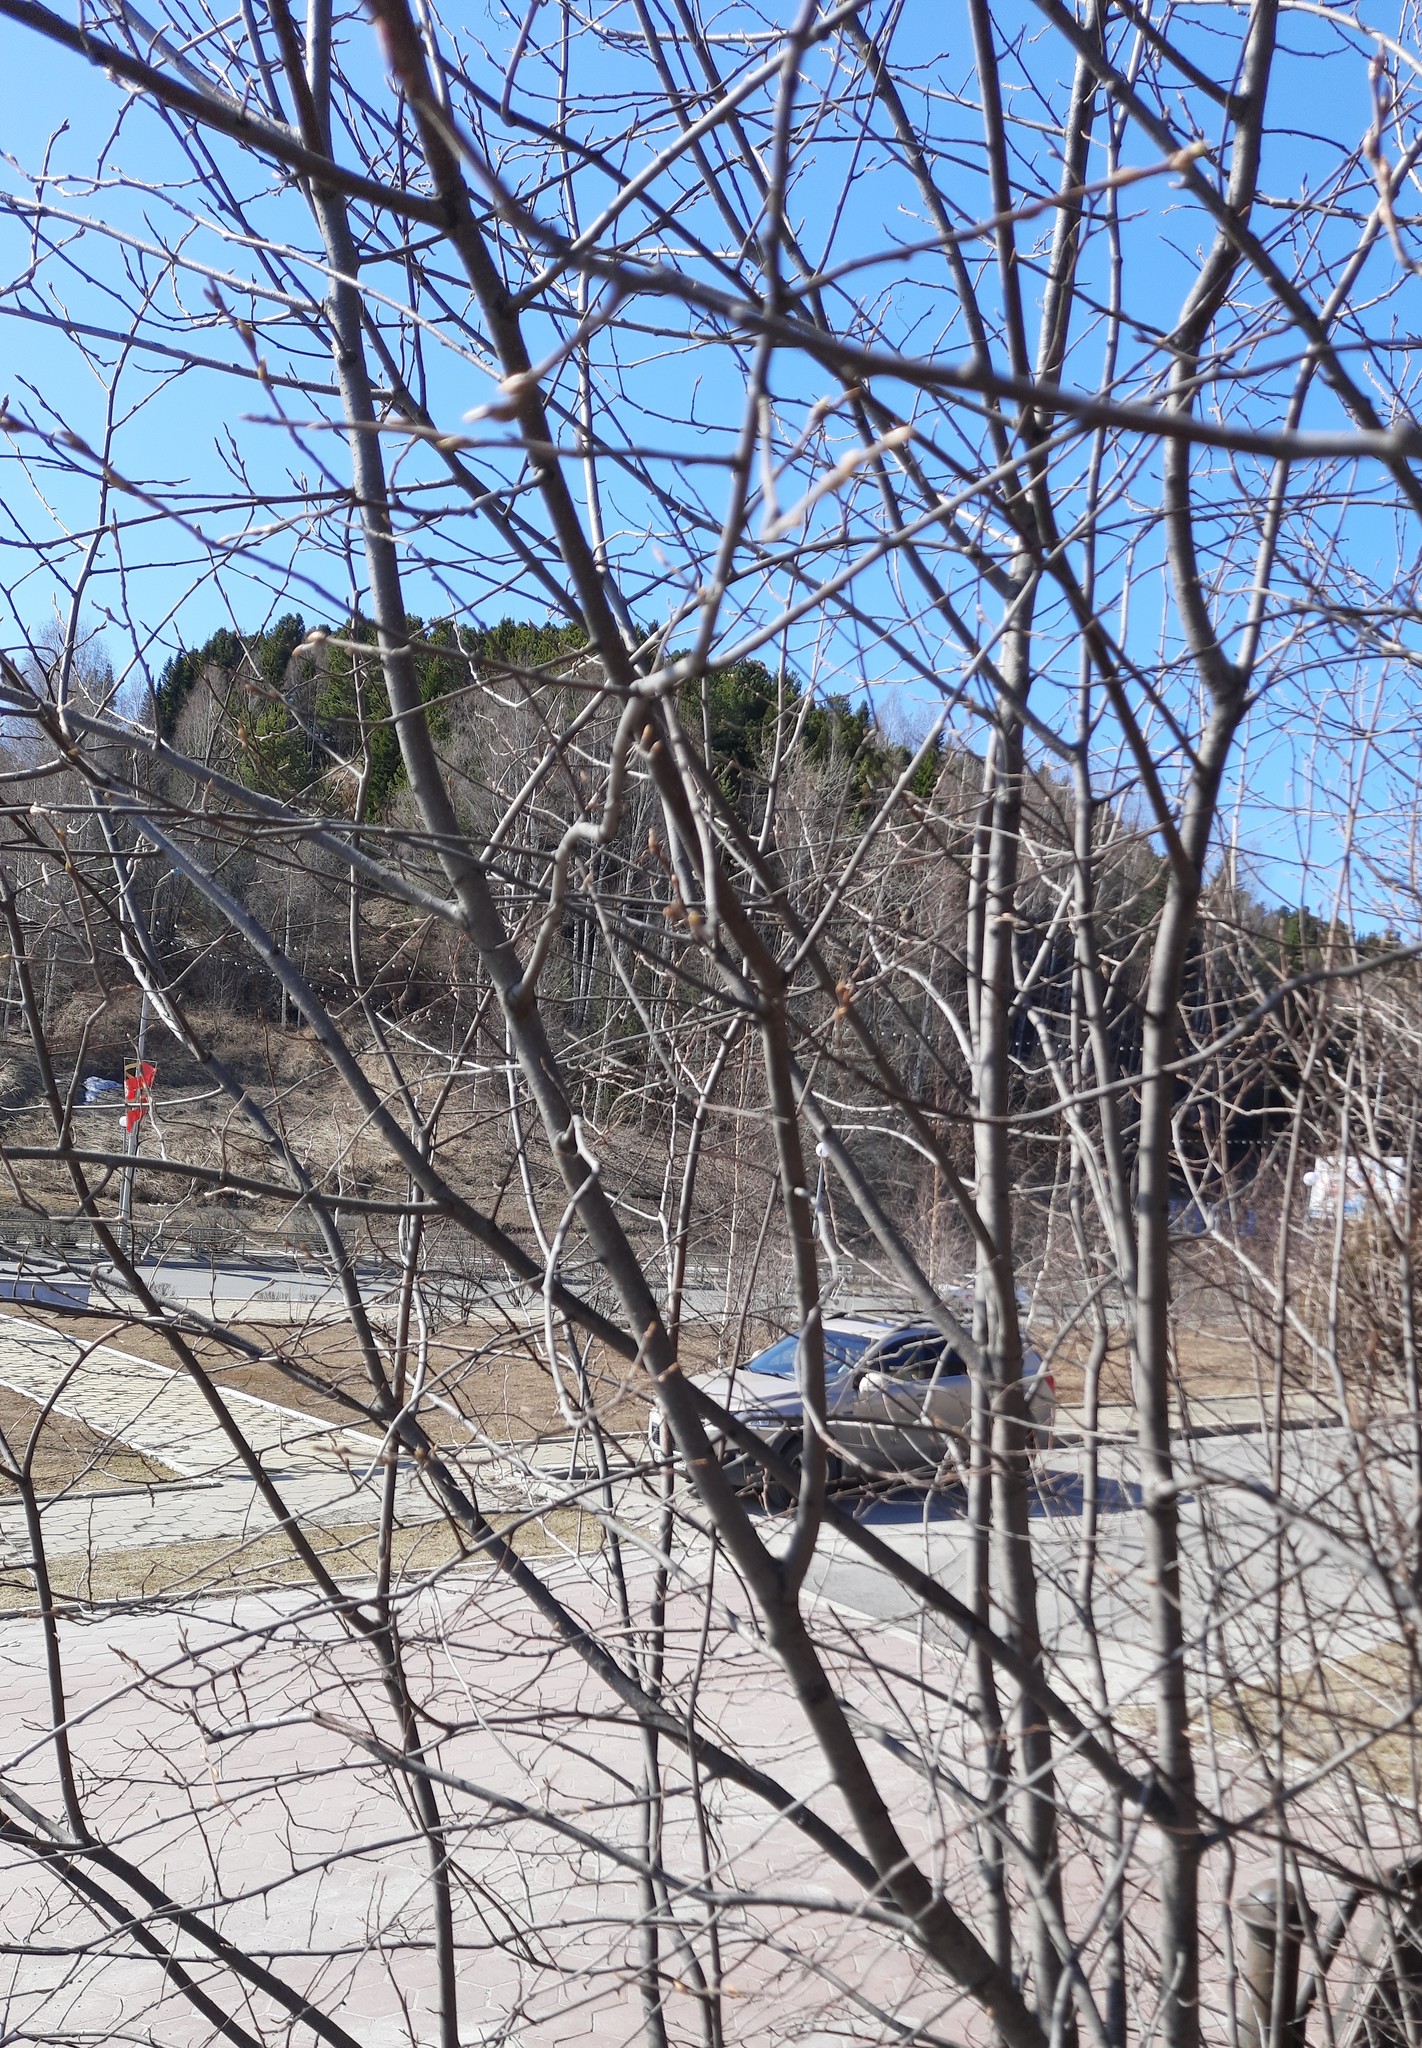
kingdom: Plantae
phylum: Tracheophyta
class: Magnoliopsida
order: Rosales
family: Rosaceae
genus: Prunus
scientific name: Prunus padus
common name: Bird cherry
